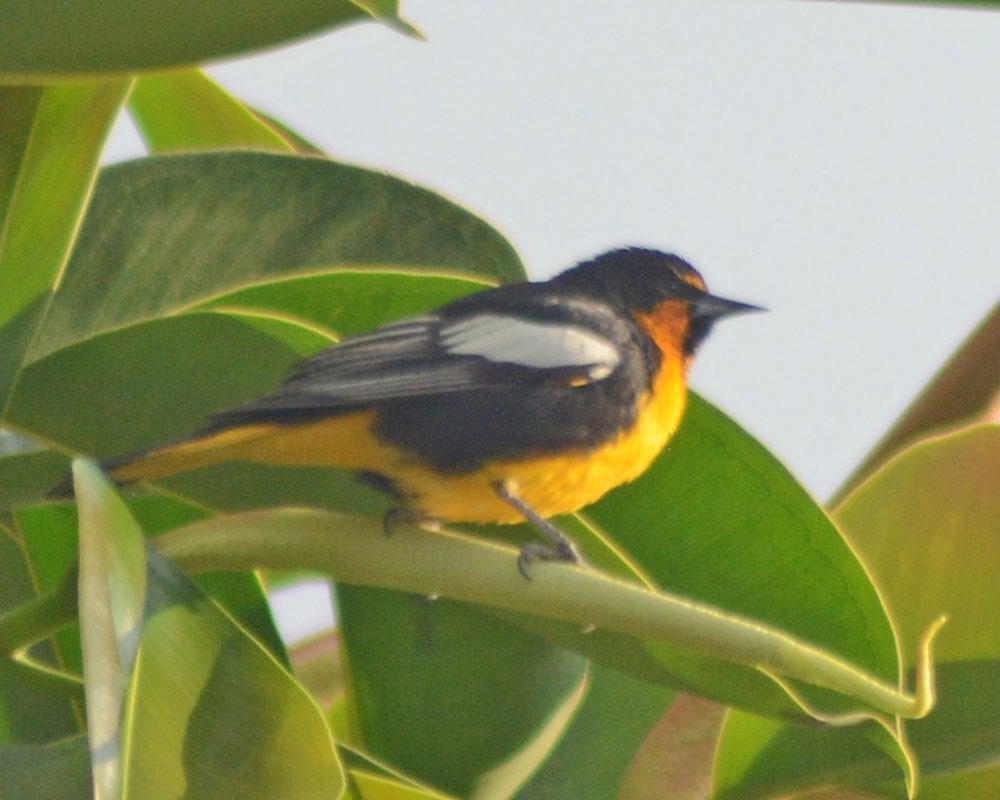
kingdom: Animalia
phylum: Chordata
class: Aves
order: Passeriformes
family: Icteridae
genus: Icterus
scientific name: Icterus abeillei
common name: Black-backed oriole
